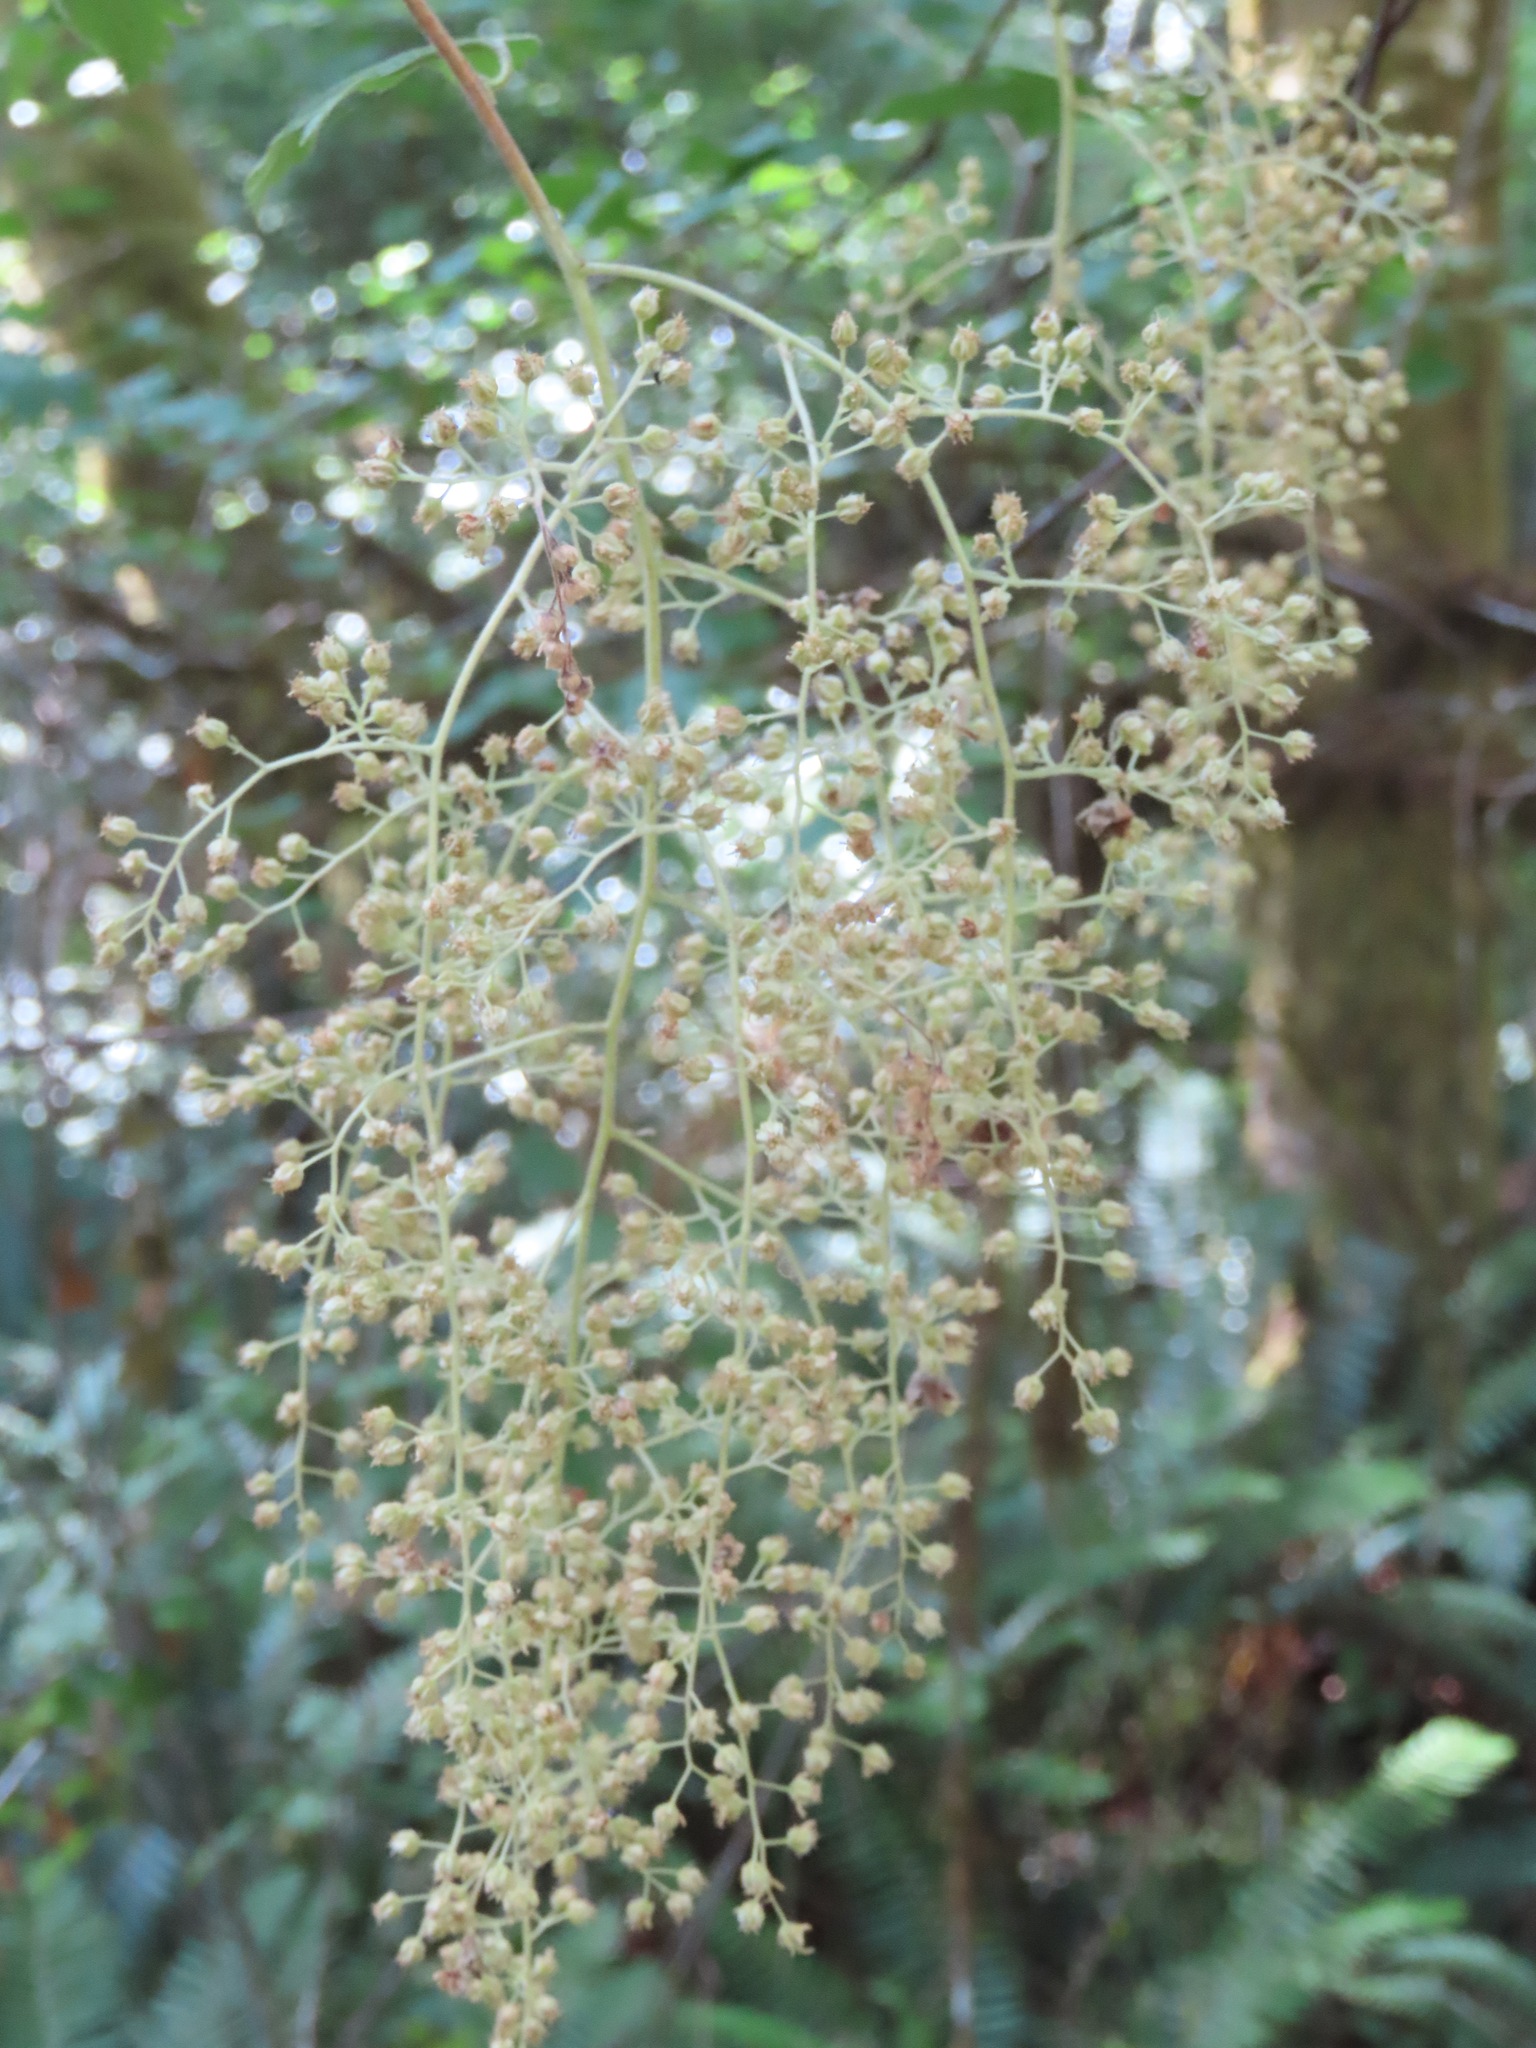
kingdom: Plantae
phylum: Tracheophyta
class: Magnoliopsida
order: Rosales
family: Rosaceae
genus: Holodiscus
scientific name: Holodiscus discolor
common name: Oceanspray
